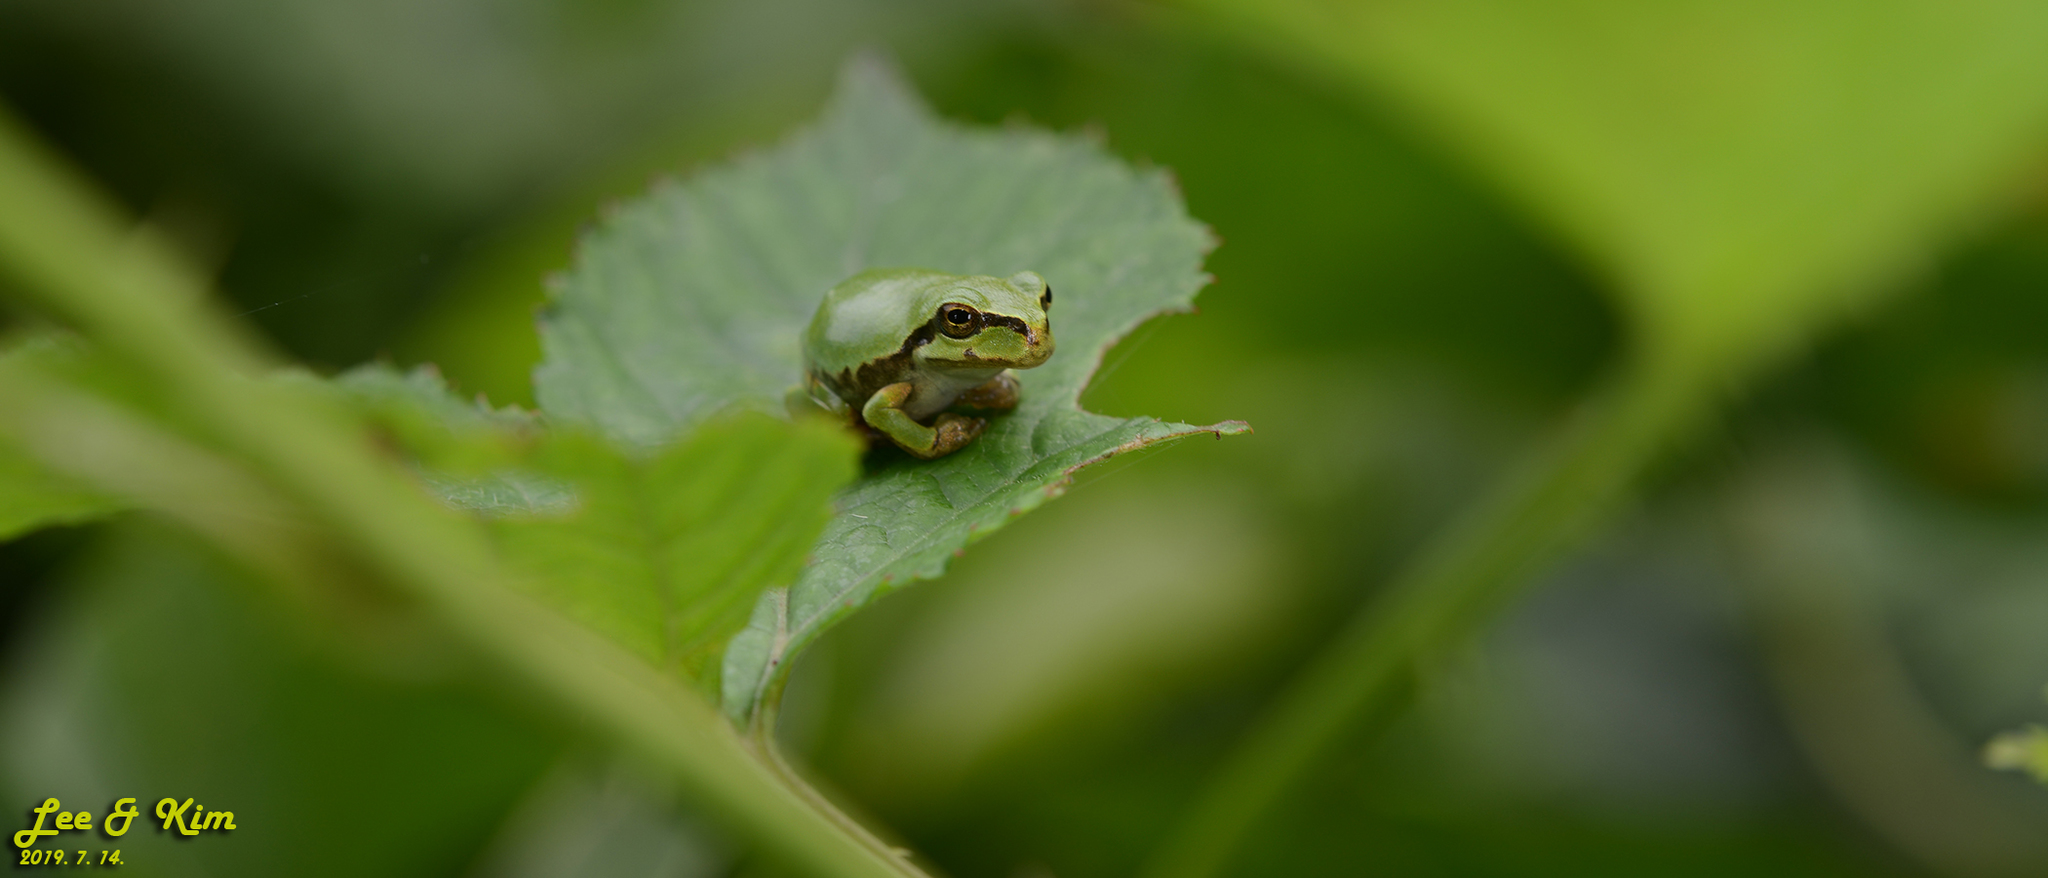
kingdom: Animalia
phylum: Chordata
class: Amphibia
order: Anura
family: Hylidae
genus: Dryophytes
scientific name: Dryophytes japonicus
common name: Japanese treefrog
